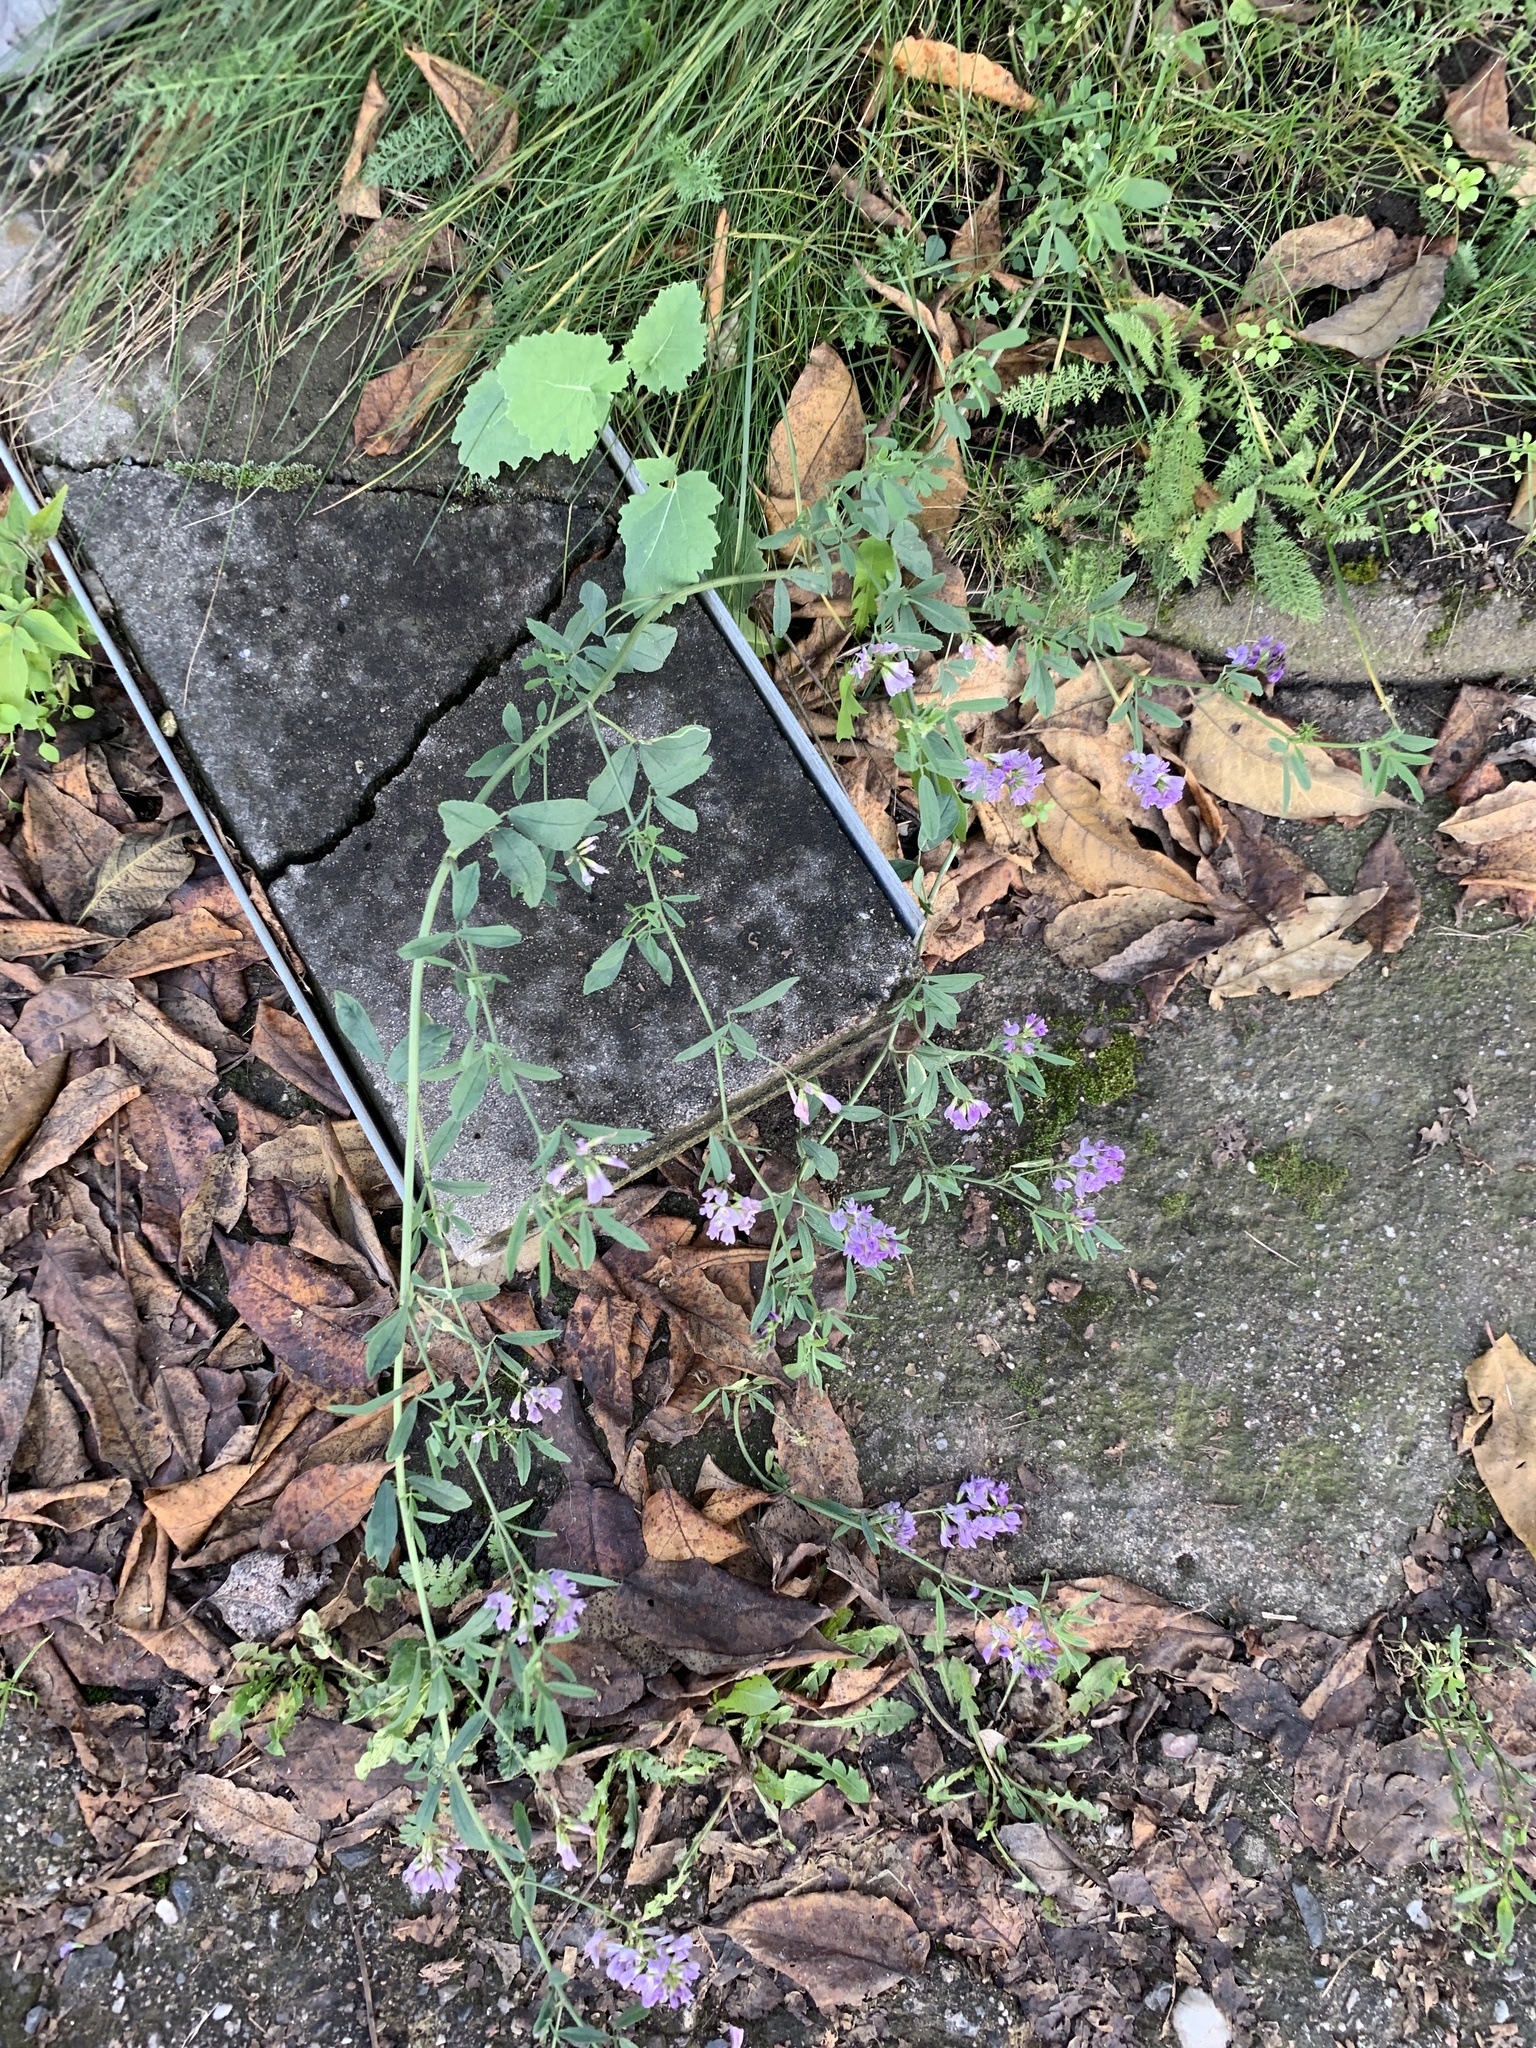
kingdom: Plantae
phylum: Tracheophyta
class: Magnoliopsida
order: Fabales
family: Fabaceae
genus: Medicago
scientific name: Medicago sativa
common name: Alfalfa
